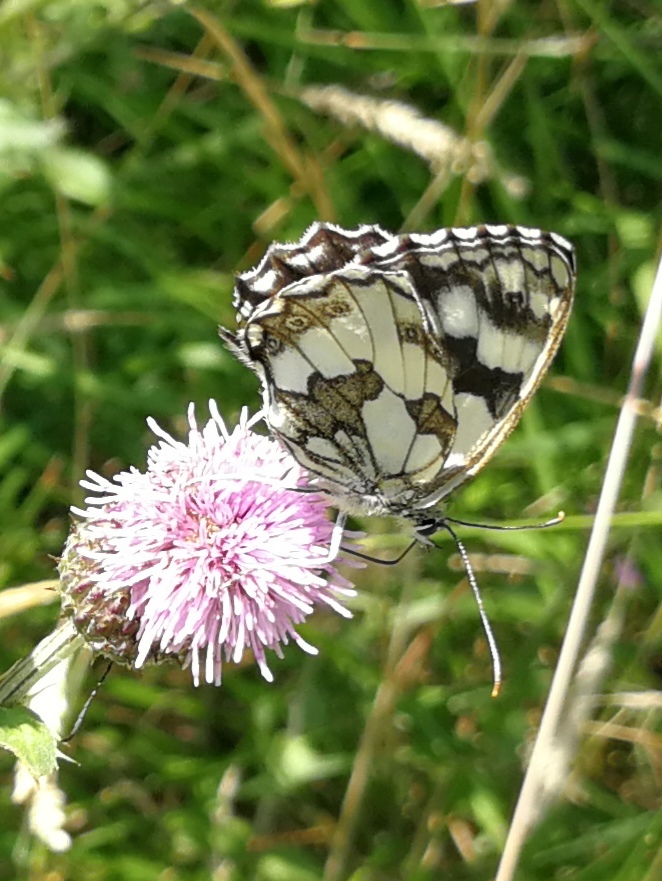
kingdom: Animalia
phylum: Arthropoda
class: Insecta
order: Lepidoptera
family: Nymphalidae
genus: Melanargia
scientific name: Melanargia galathea
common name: Marbled white
